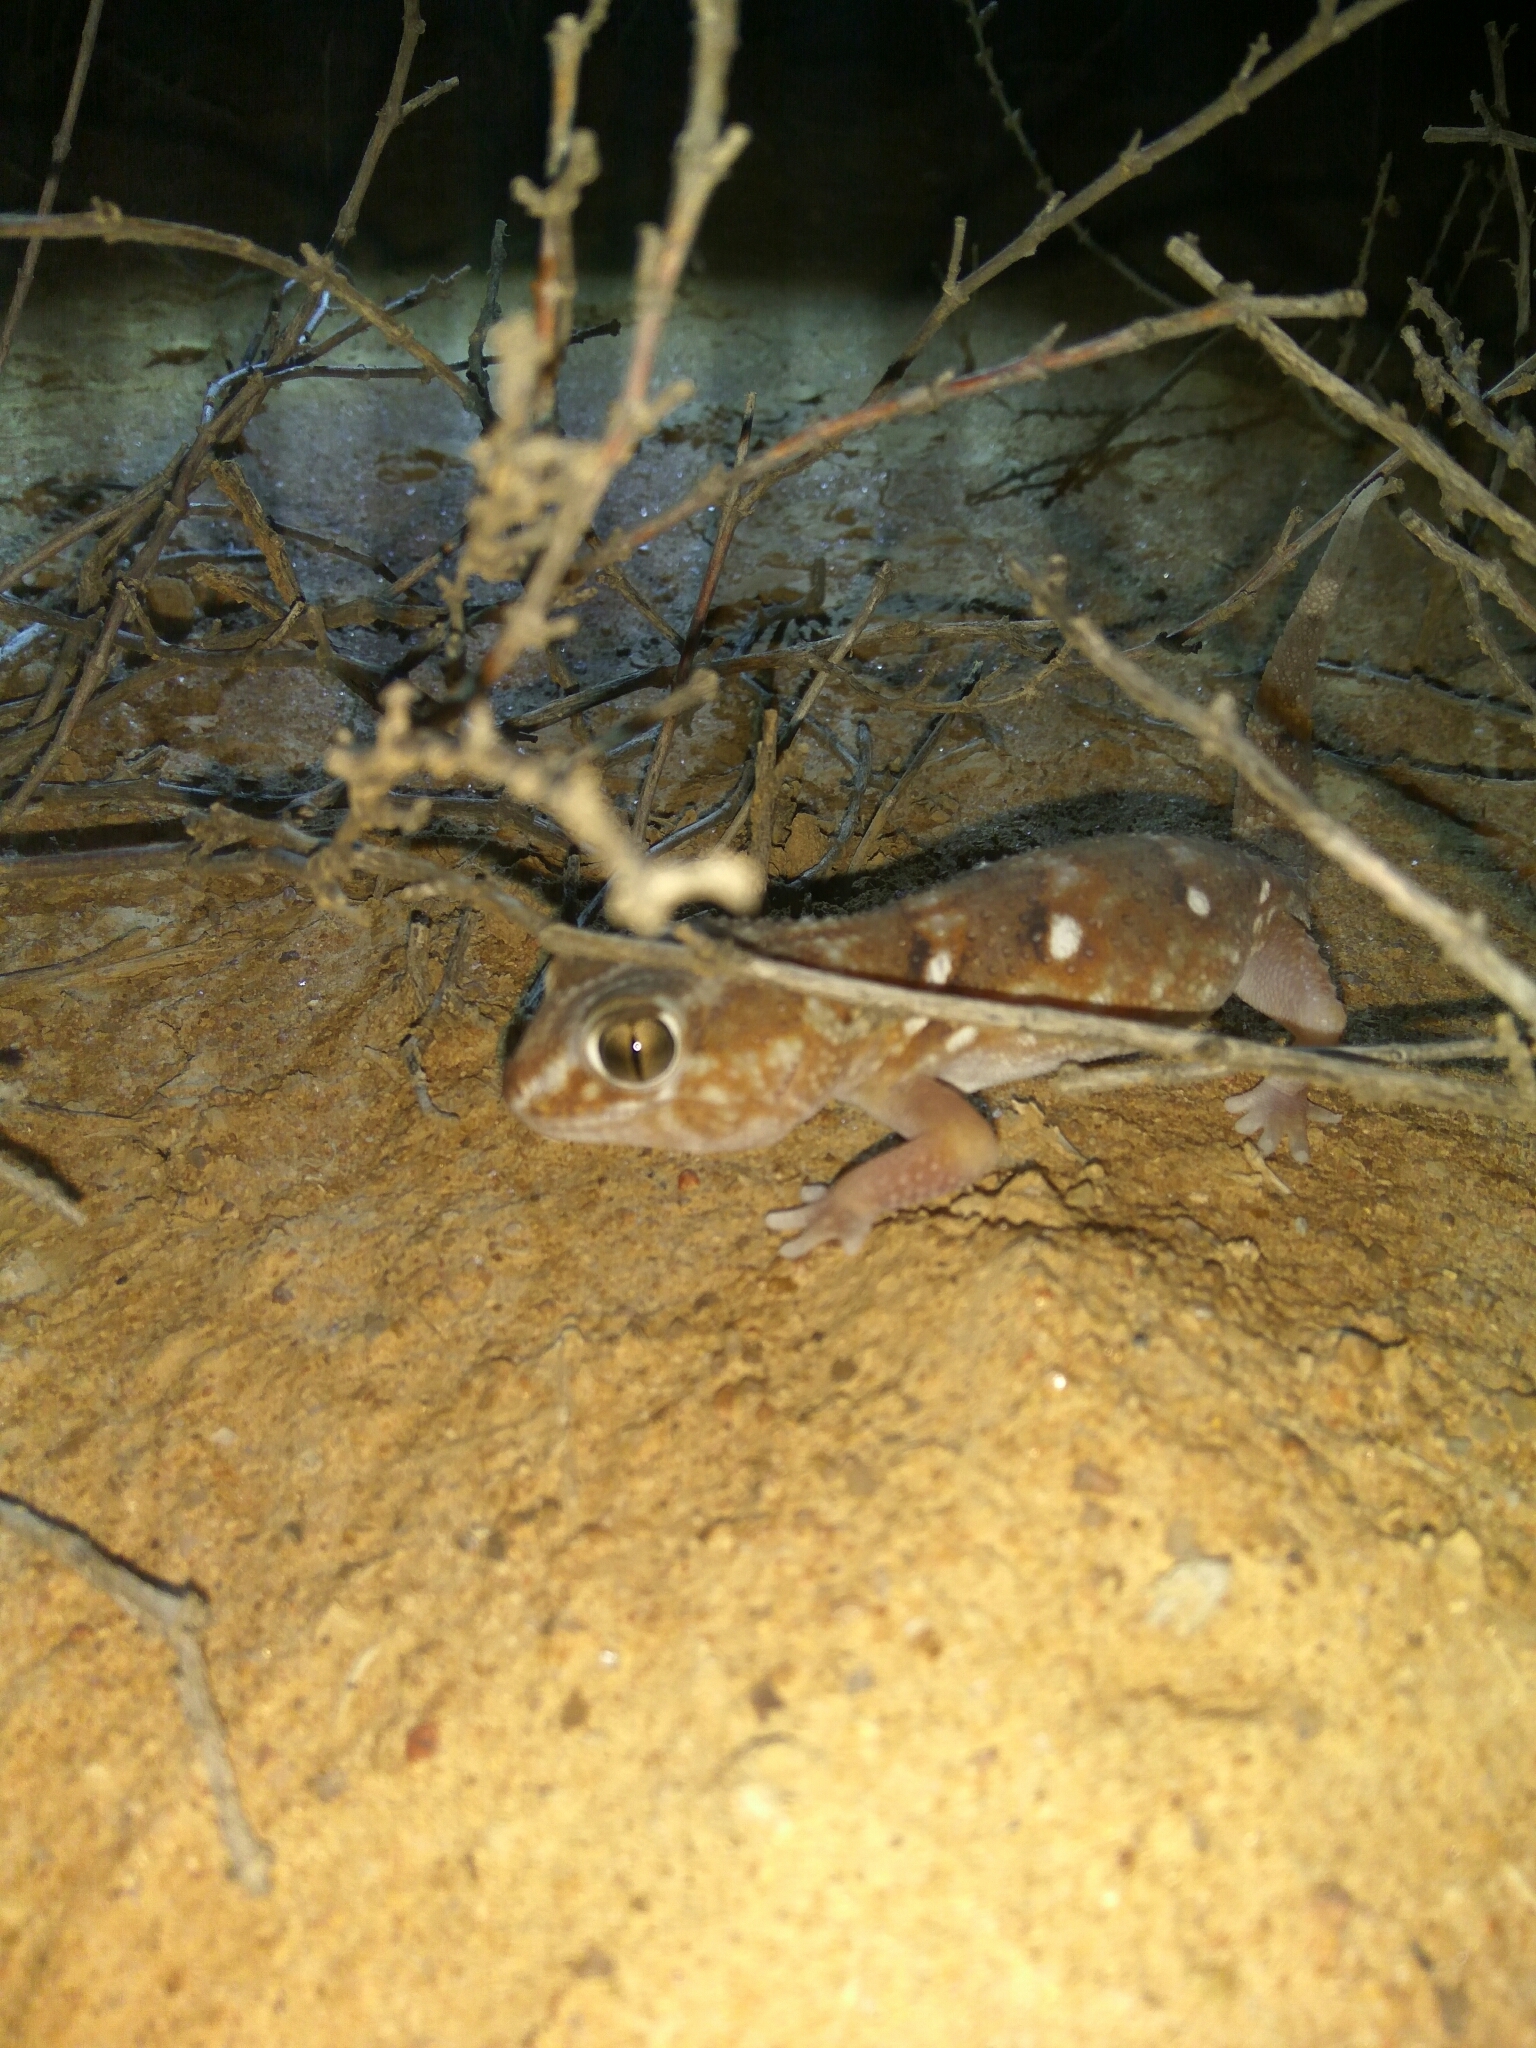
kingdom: Animalia
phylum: Chordata
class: Squamata
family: Gekkonidae
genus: Chondrodactylus
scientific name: Chondrodactylus angulifer
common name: Common giant ground gecko
